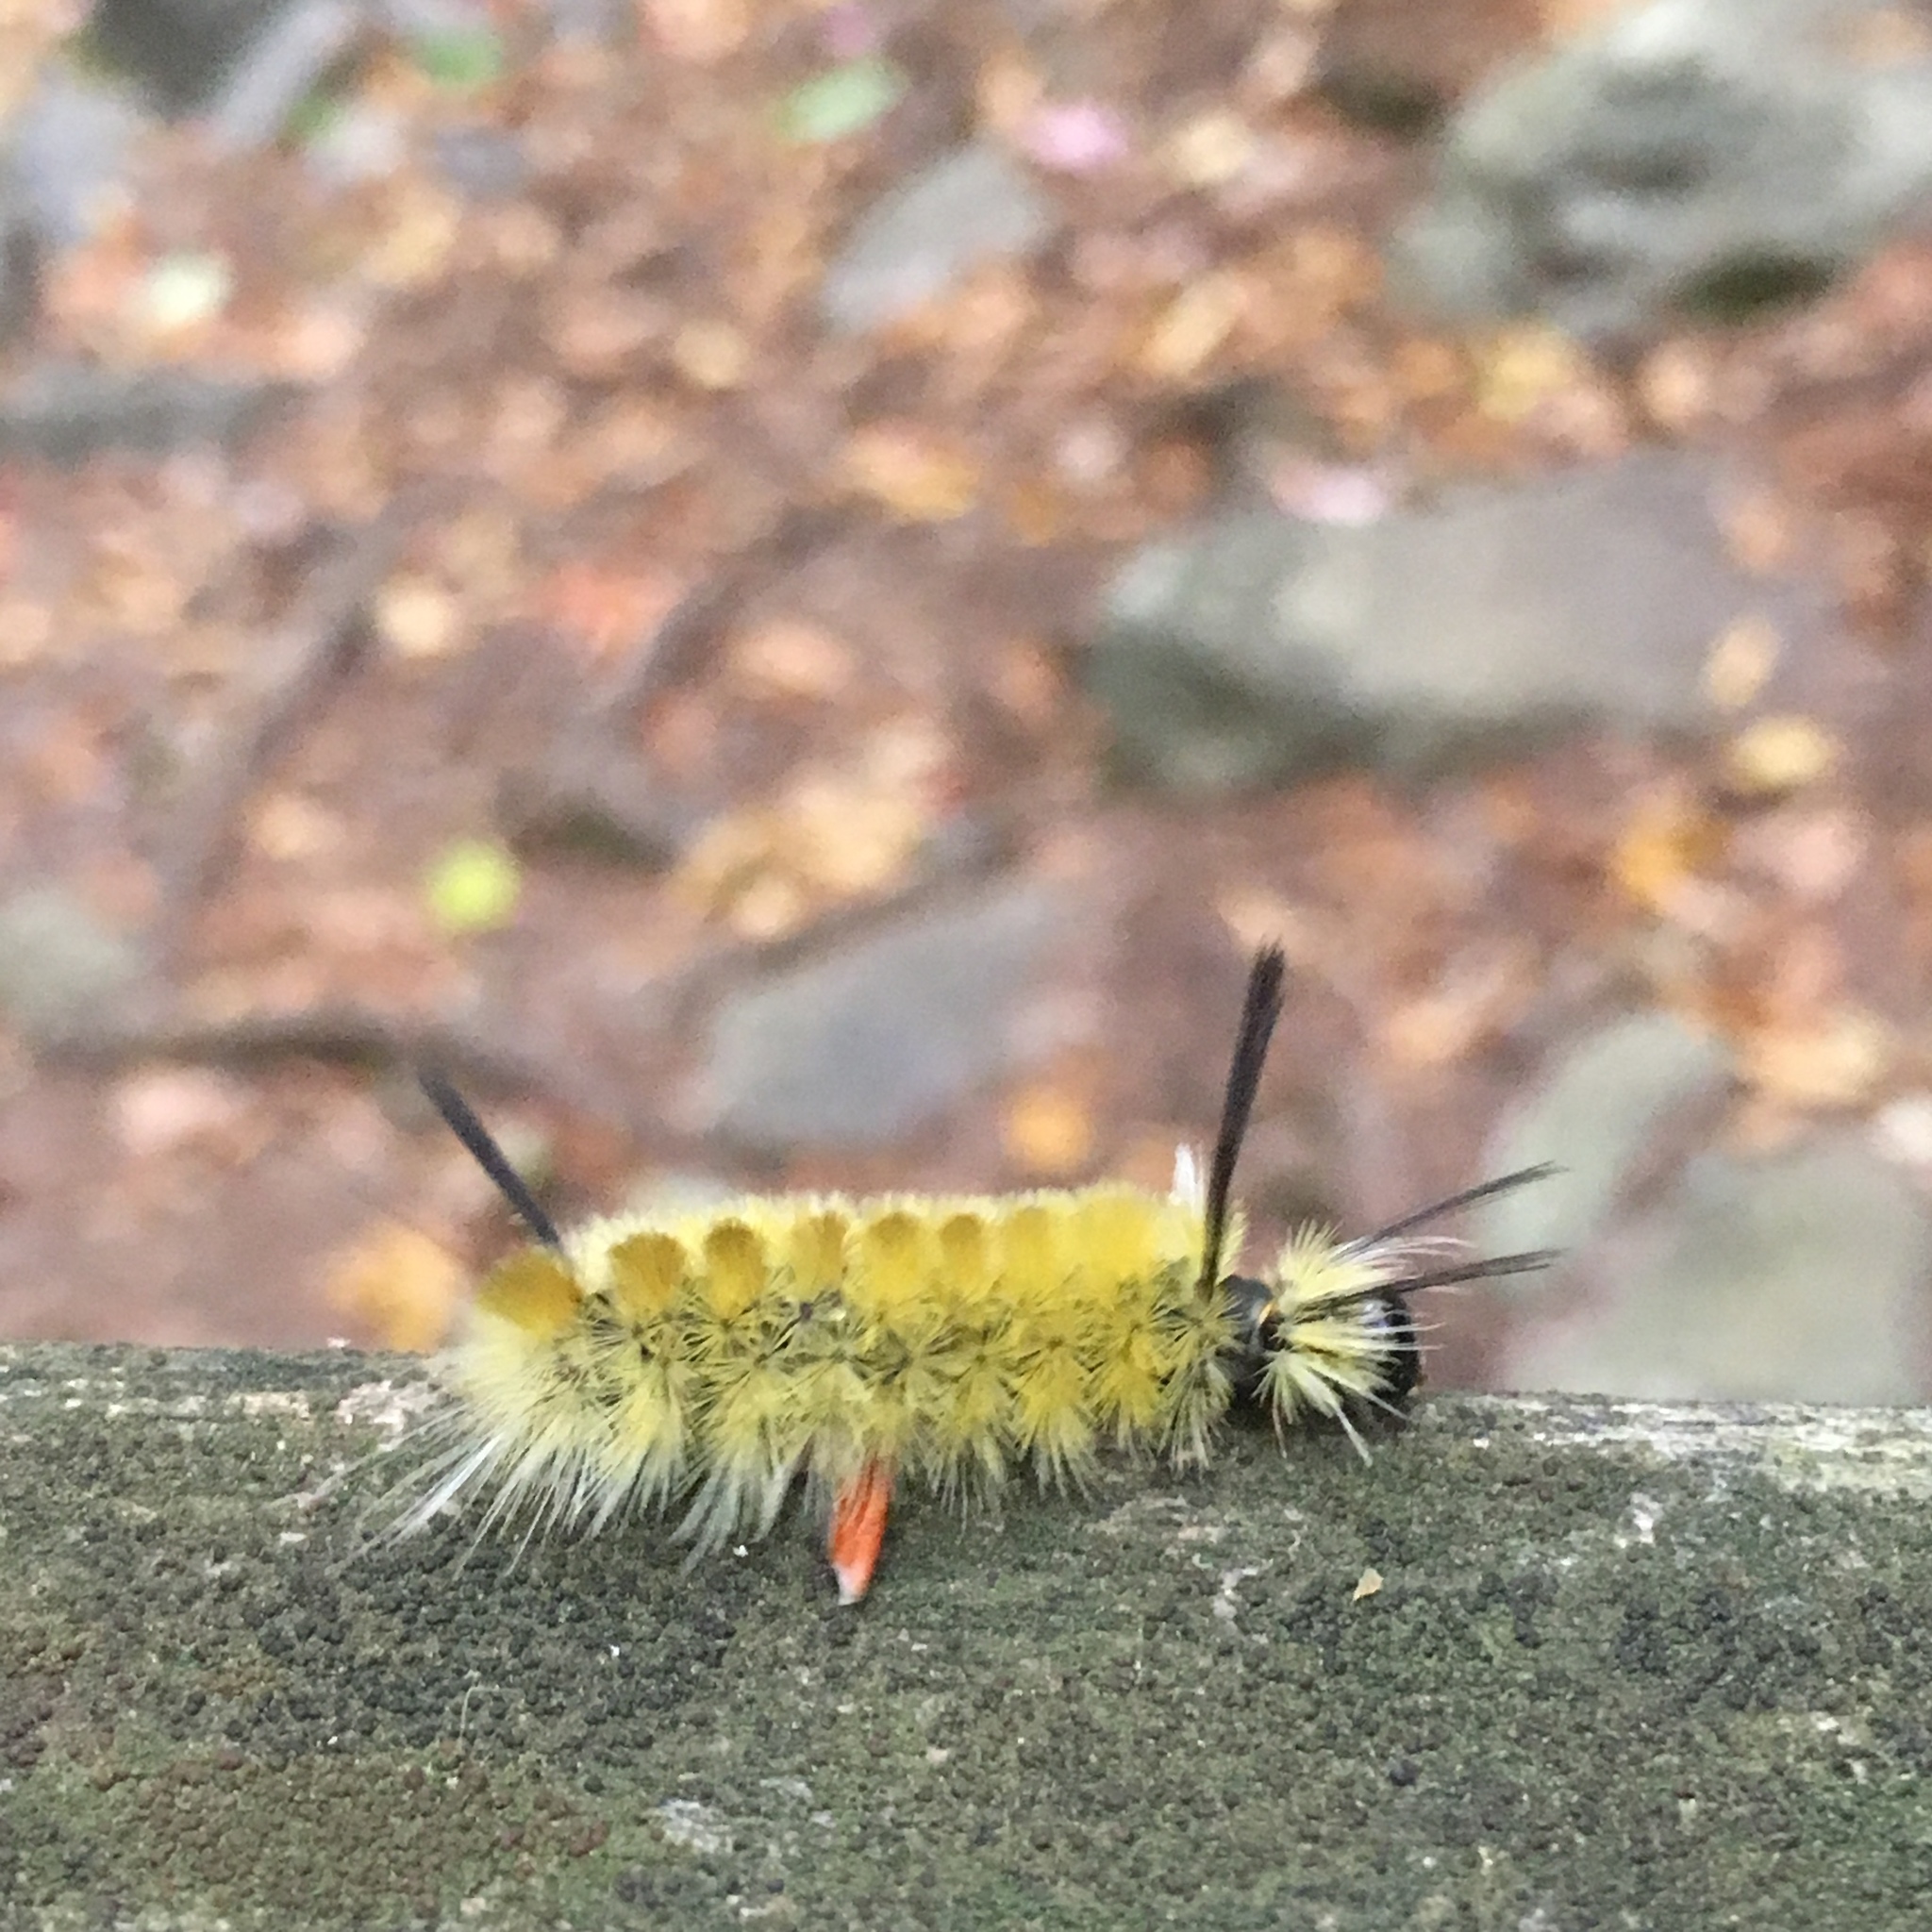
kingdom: Animalia
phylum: Arthropoda
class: Insecta
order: Lepidoptera
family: Erebidae
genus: Halysidota
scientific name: Halysidota tessellaris
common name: Banded tussock moth
